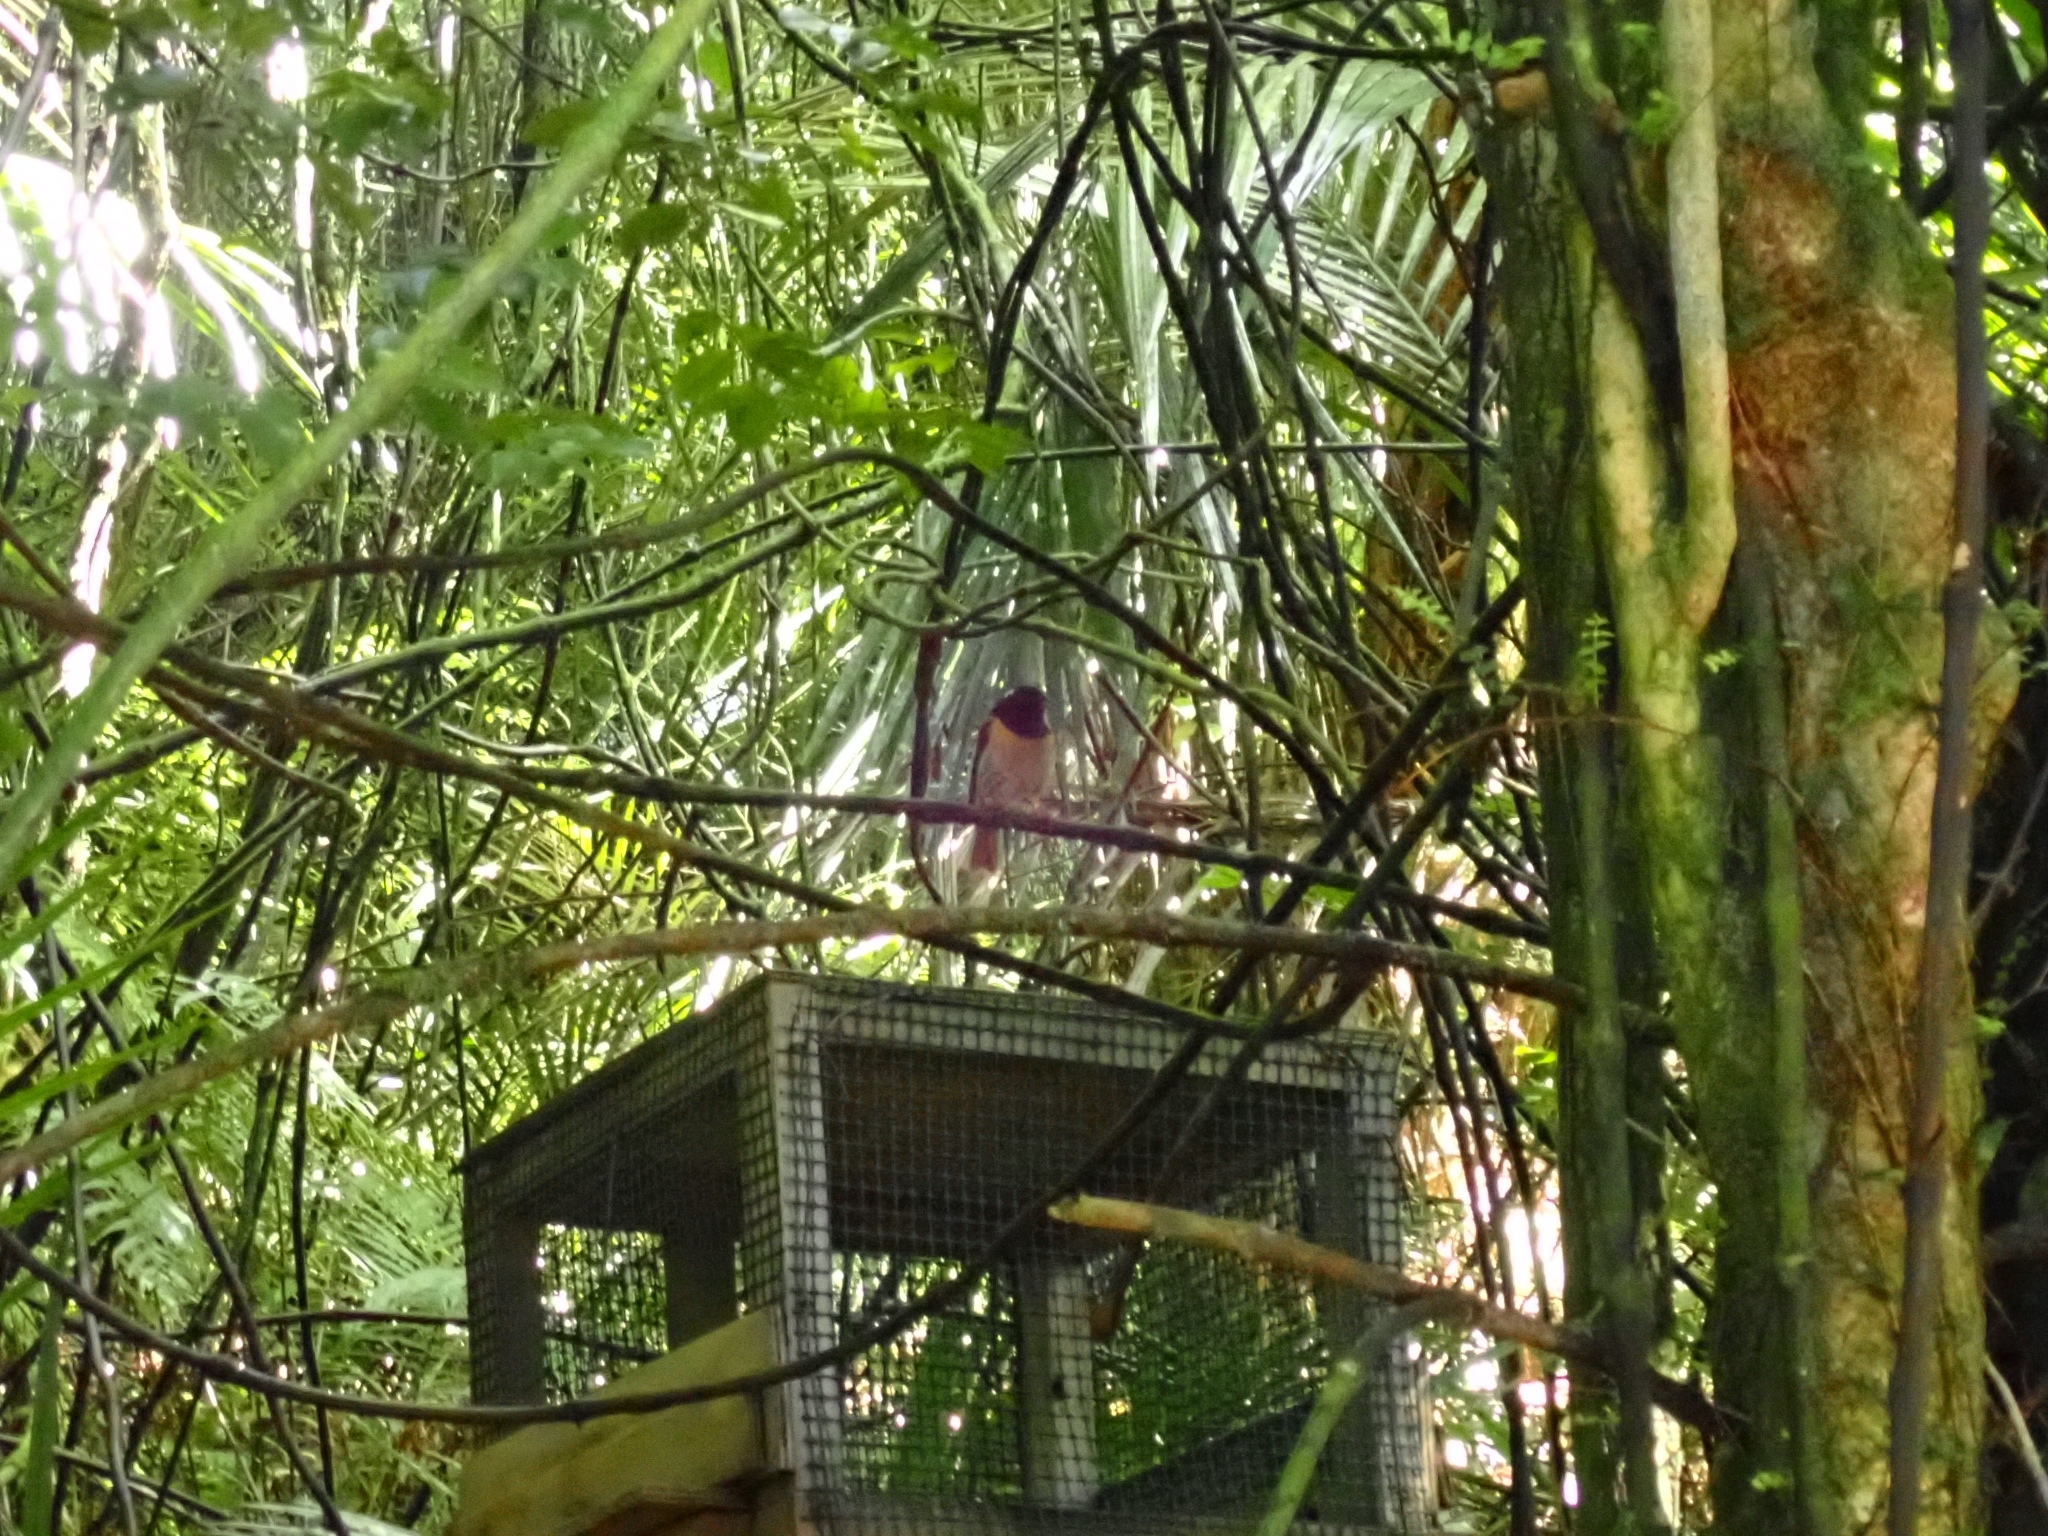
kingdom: Animalia
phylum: Chordata
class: Aves
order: Passeriformes
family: Notiomystidae
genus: Notiomystis
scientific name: Notiomystis cincta
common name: Stitchbird
